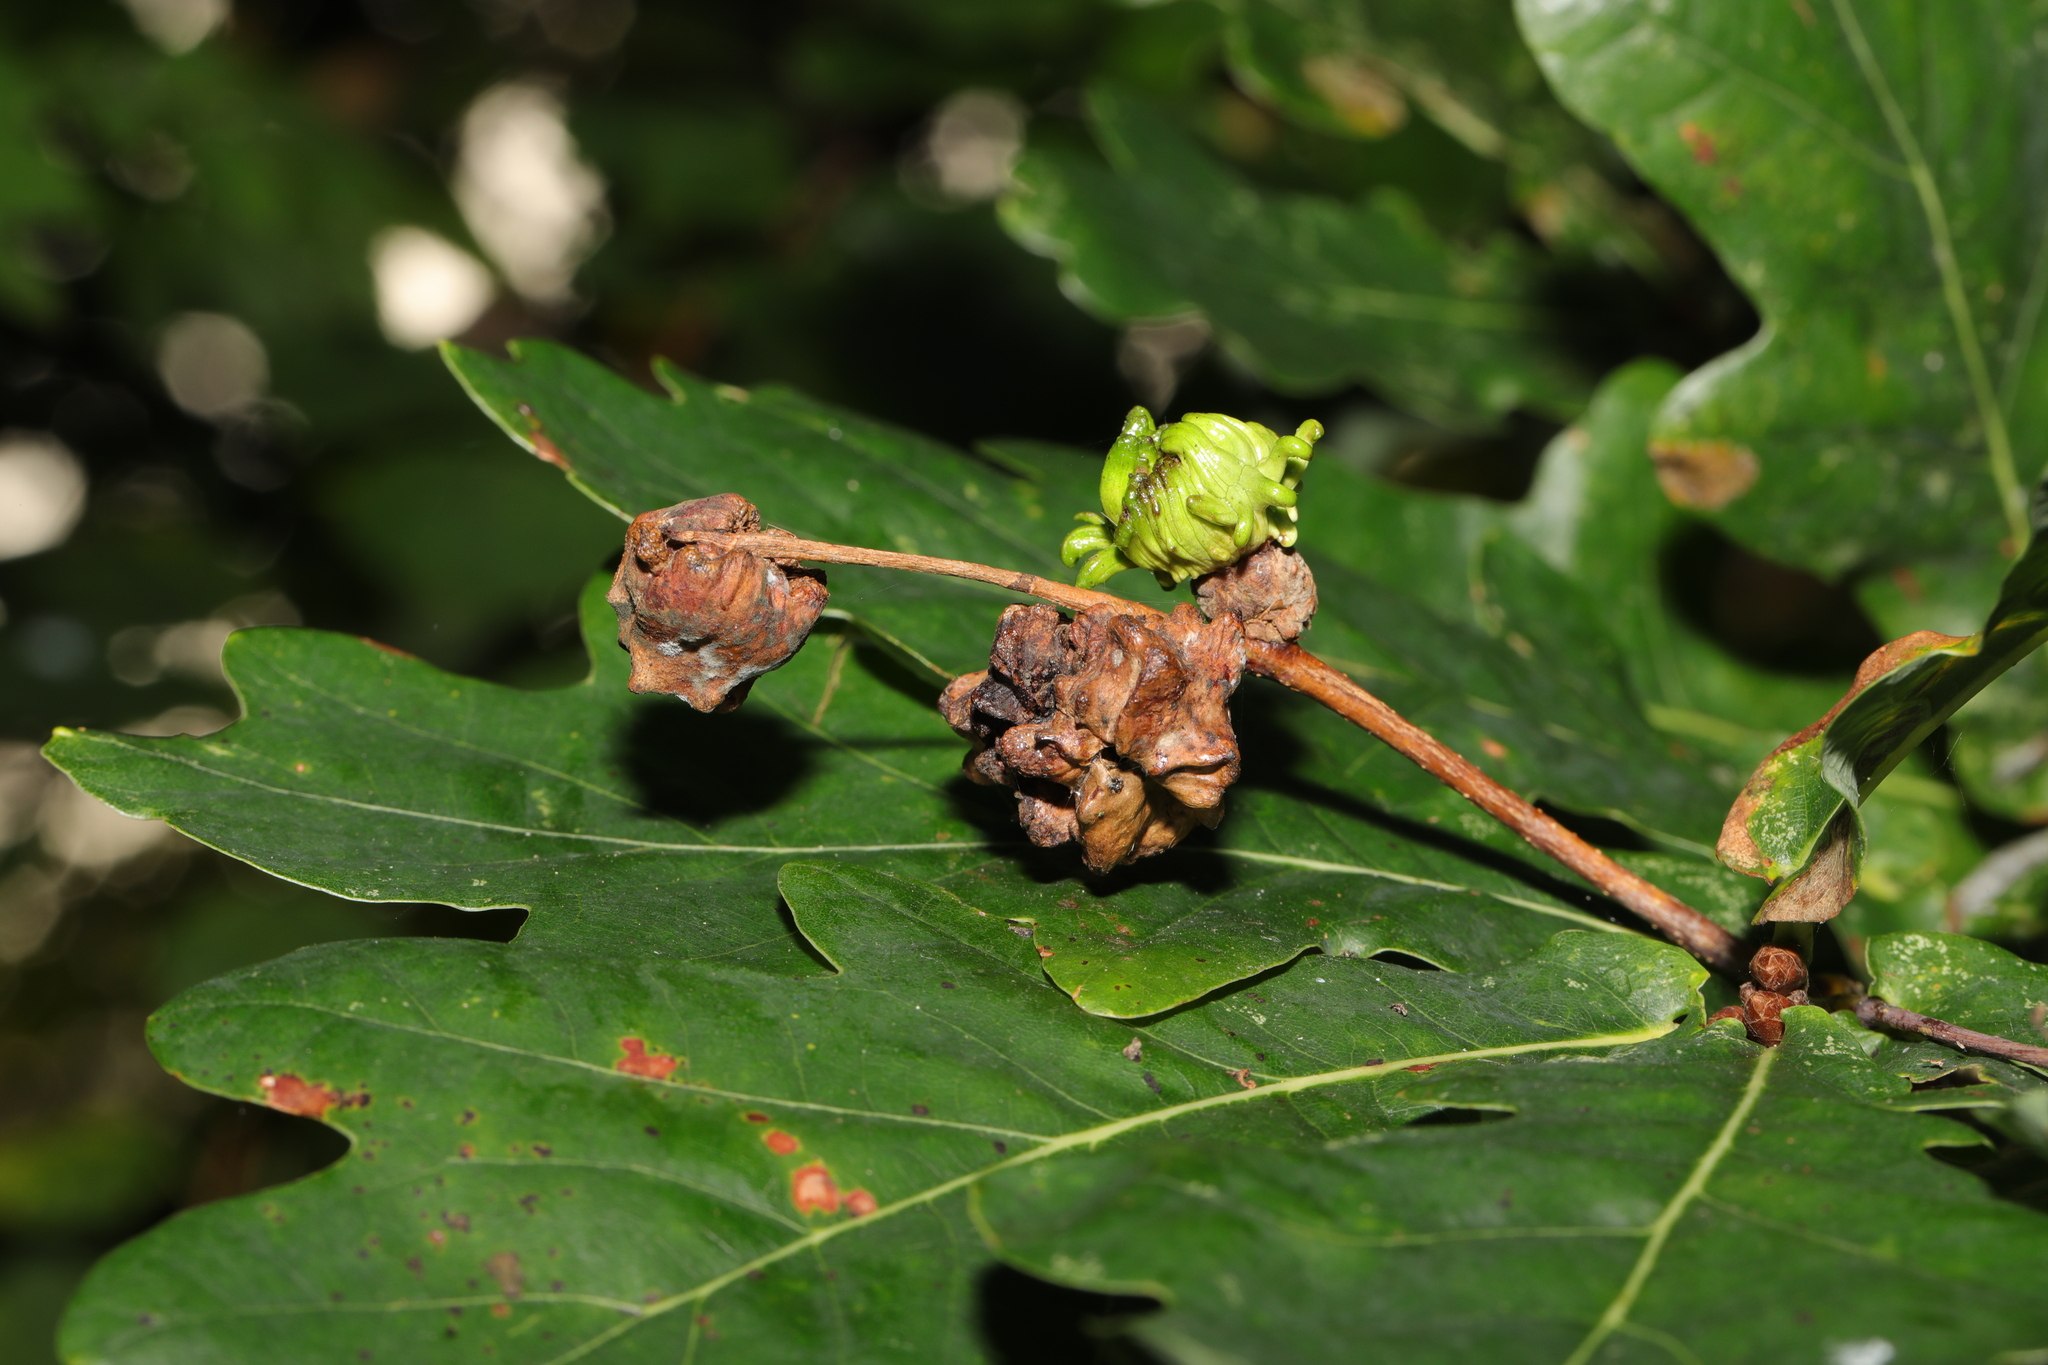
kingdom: Animalia
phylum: Arthropoda
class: Insecta
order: Hymenoptera
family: Cynipidae
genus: Andricus
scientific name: Andricus quercuscalicis
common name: Knopper gall
